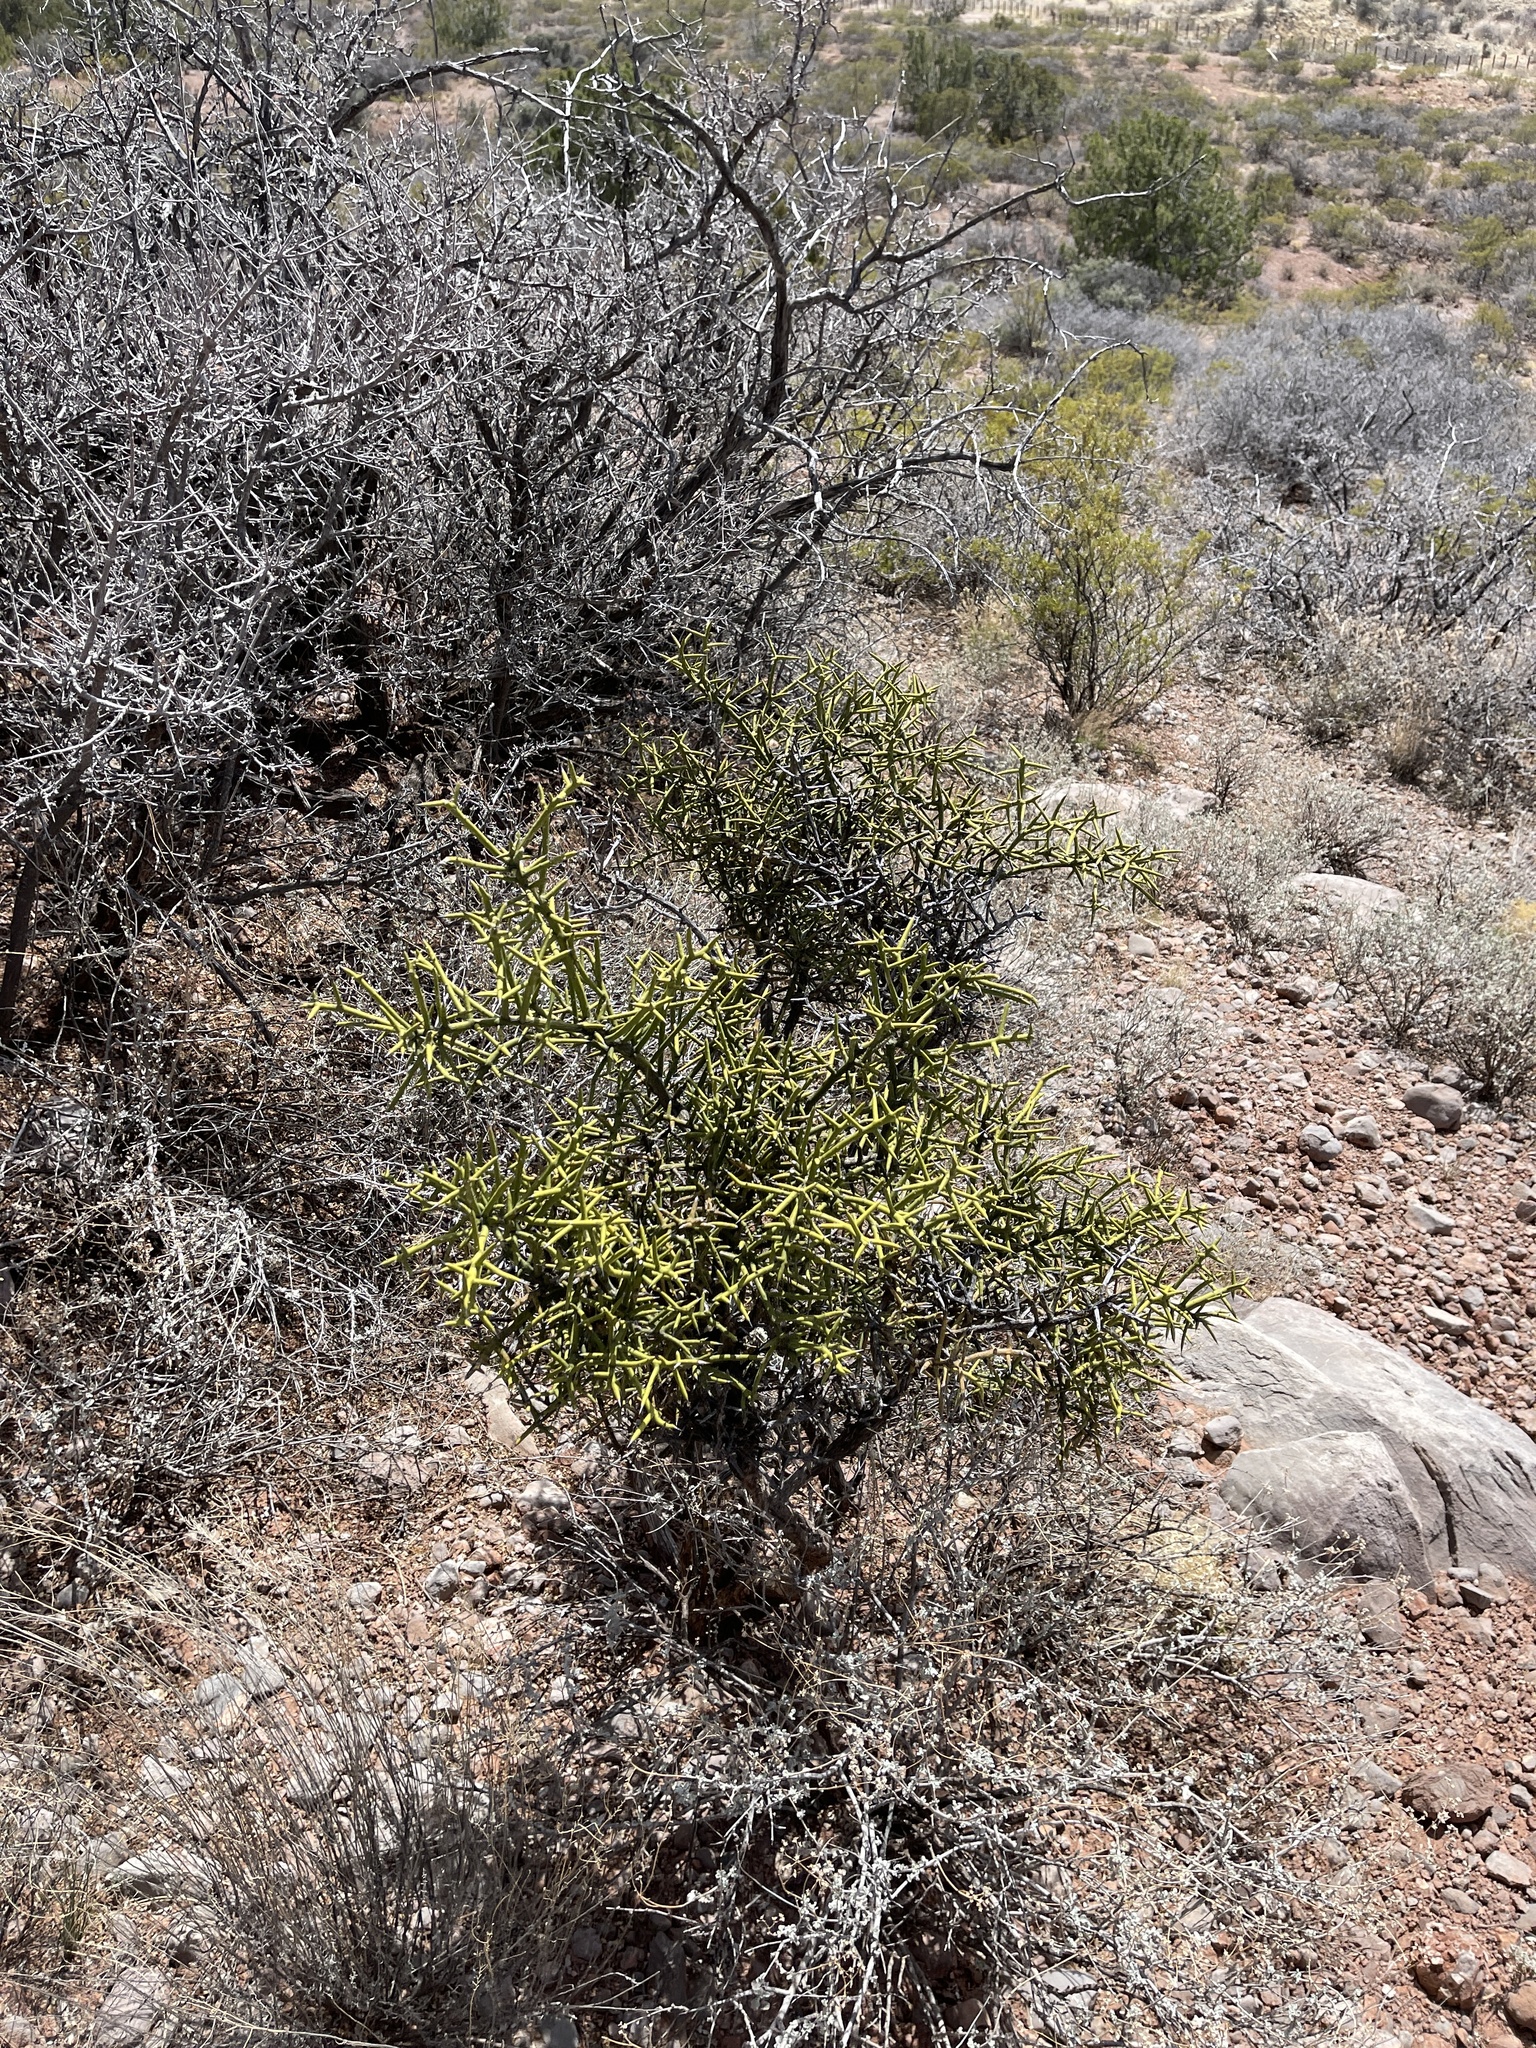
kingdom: Plantae
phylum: Tracheophyta
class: Magnoliopsida
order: Brassicales
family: Koeberliniaceae
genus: Koeberlinia
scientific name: Koeberlinia spinosa
